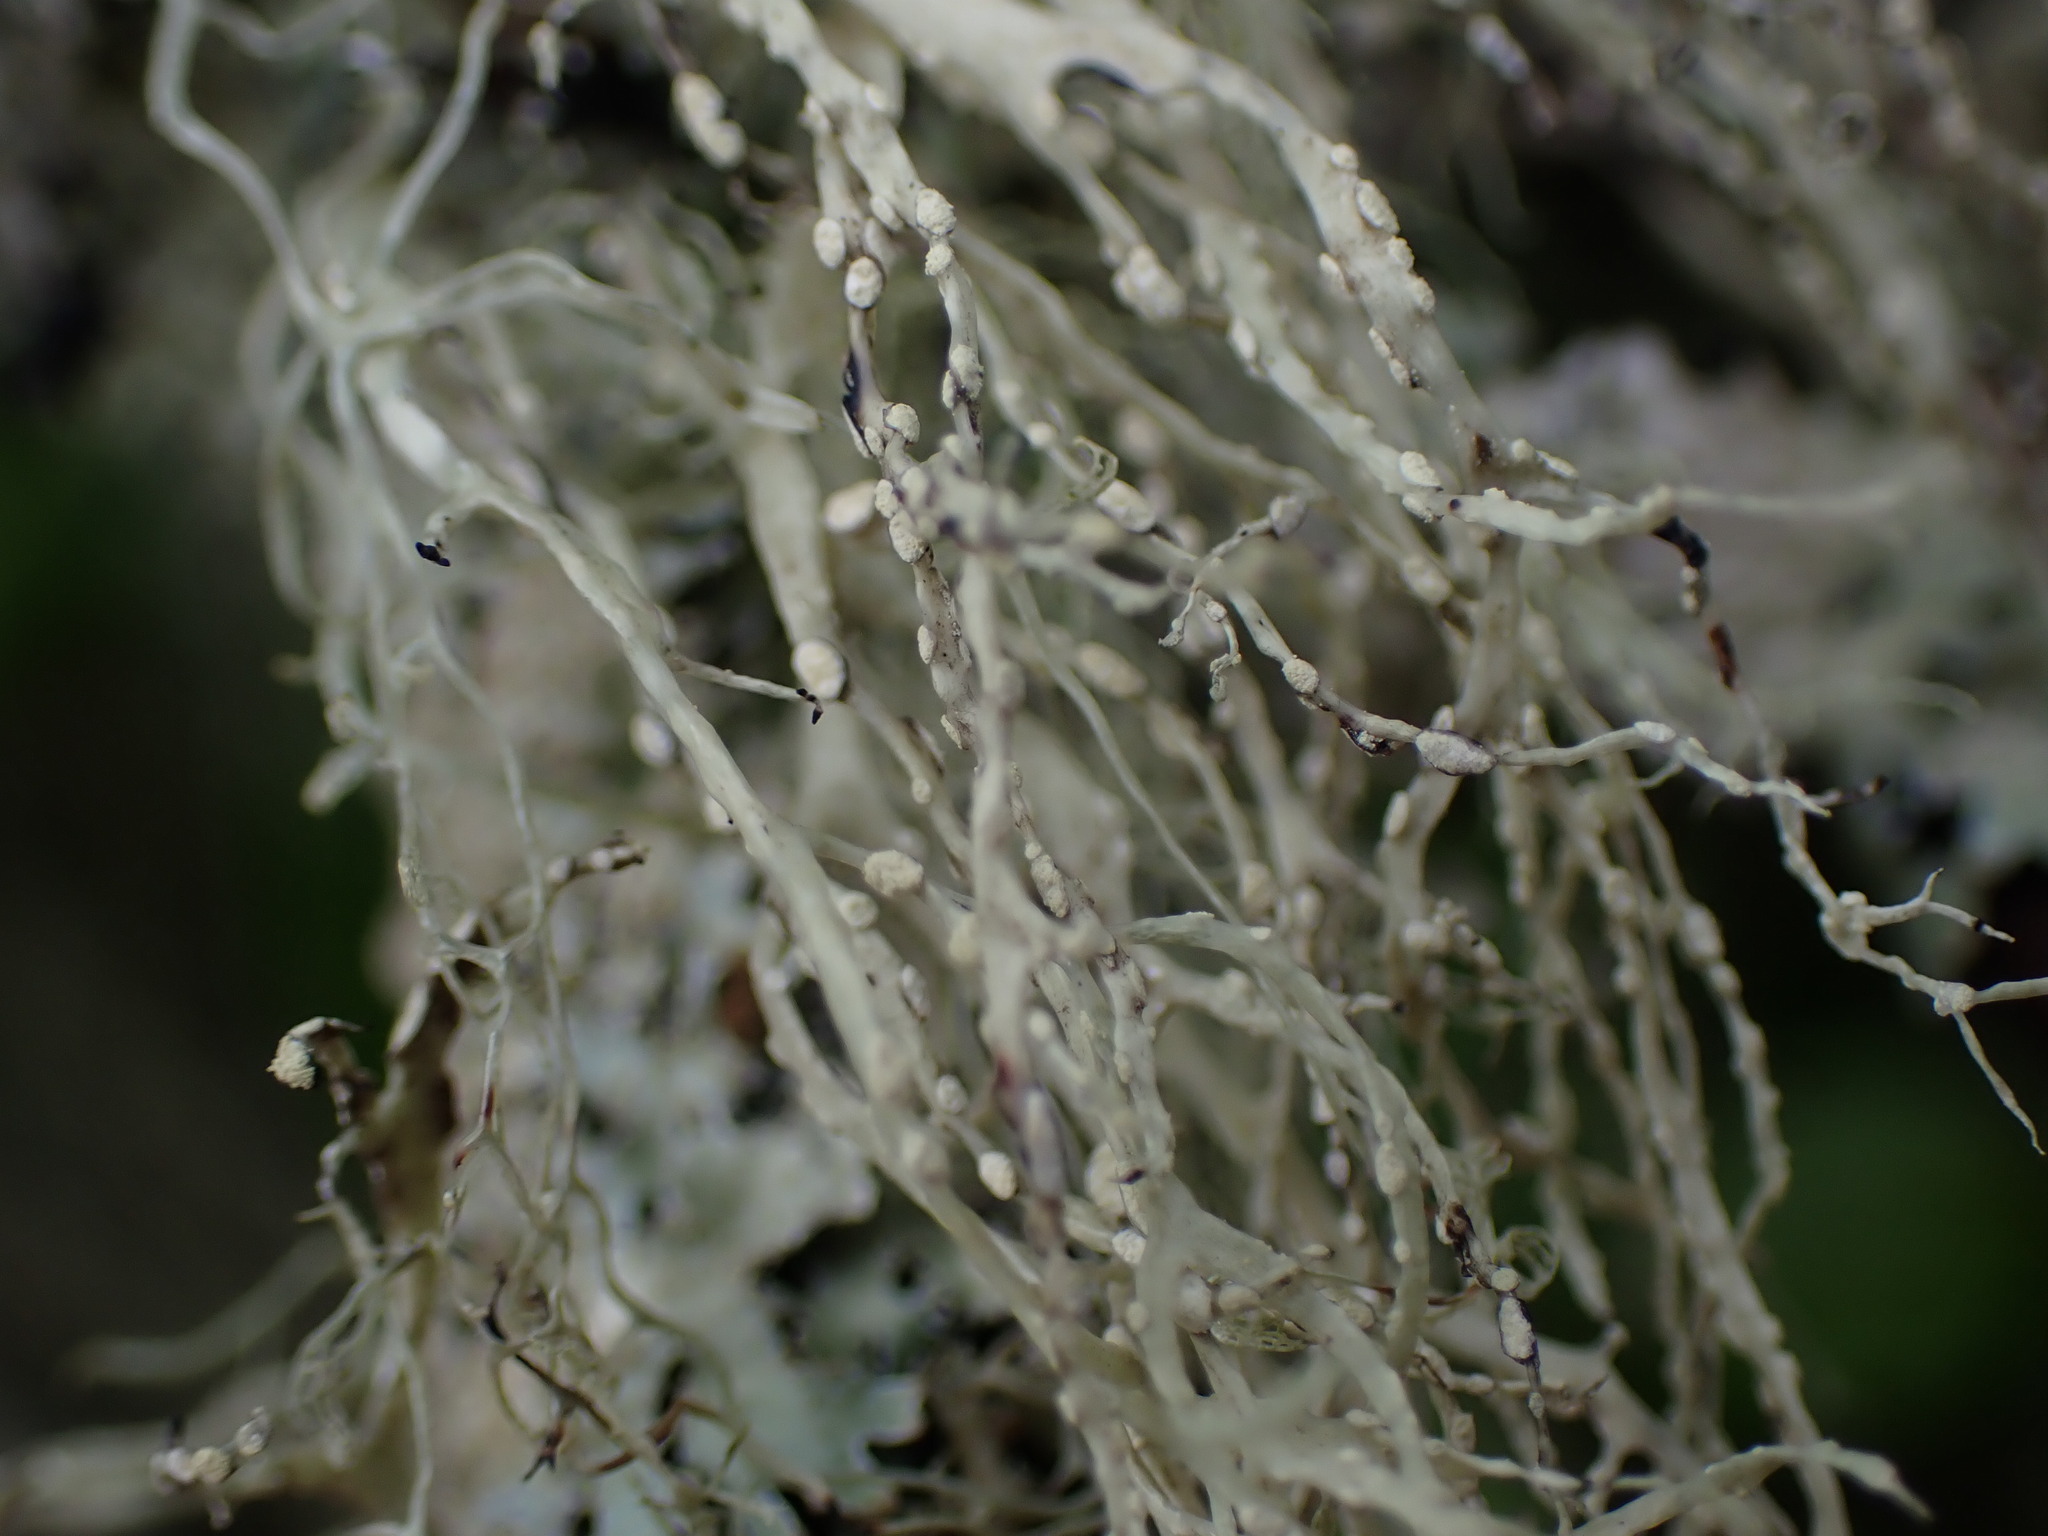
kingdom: Fungi
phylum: Ascomycota
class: Lecanoromycetes
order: Lecanorales
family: Ramalinaceae
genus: Ramalina
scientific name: Ramalina farinacea
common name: Farinose cartilage lichen
